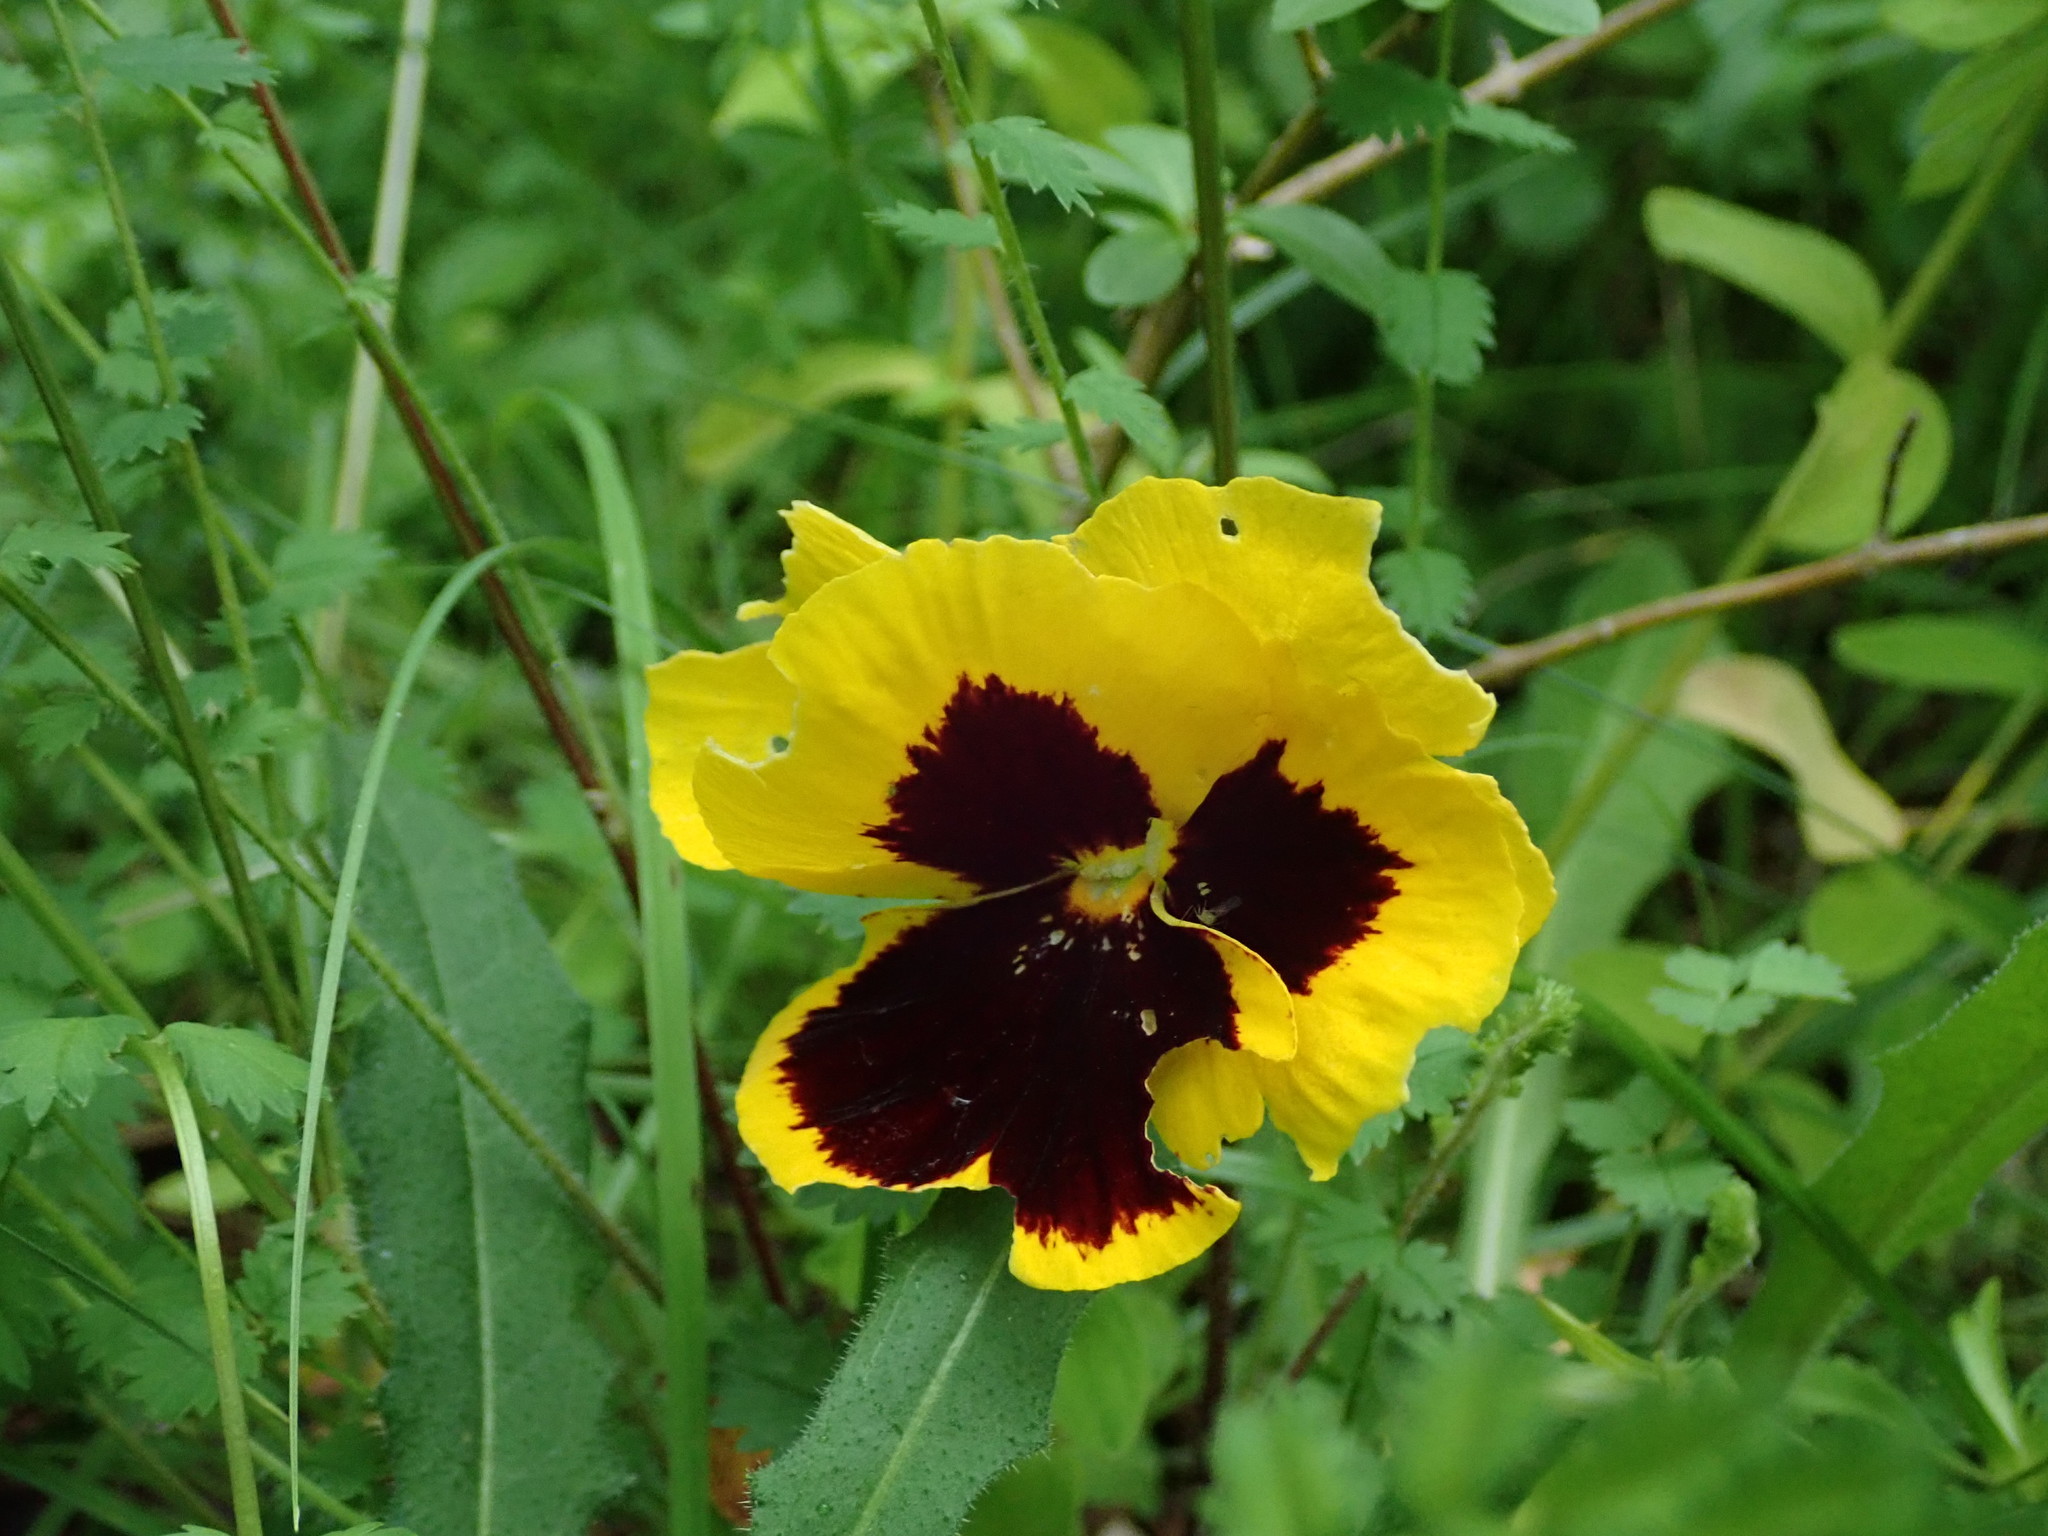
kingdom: Plantae
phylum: Tracheophyta
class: Magnoliopsida
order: Malpighiales
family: Violaceae
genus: Viola
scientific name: Viola wittrockiana
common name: Garden pansy
